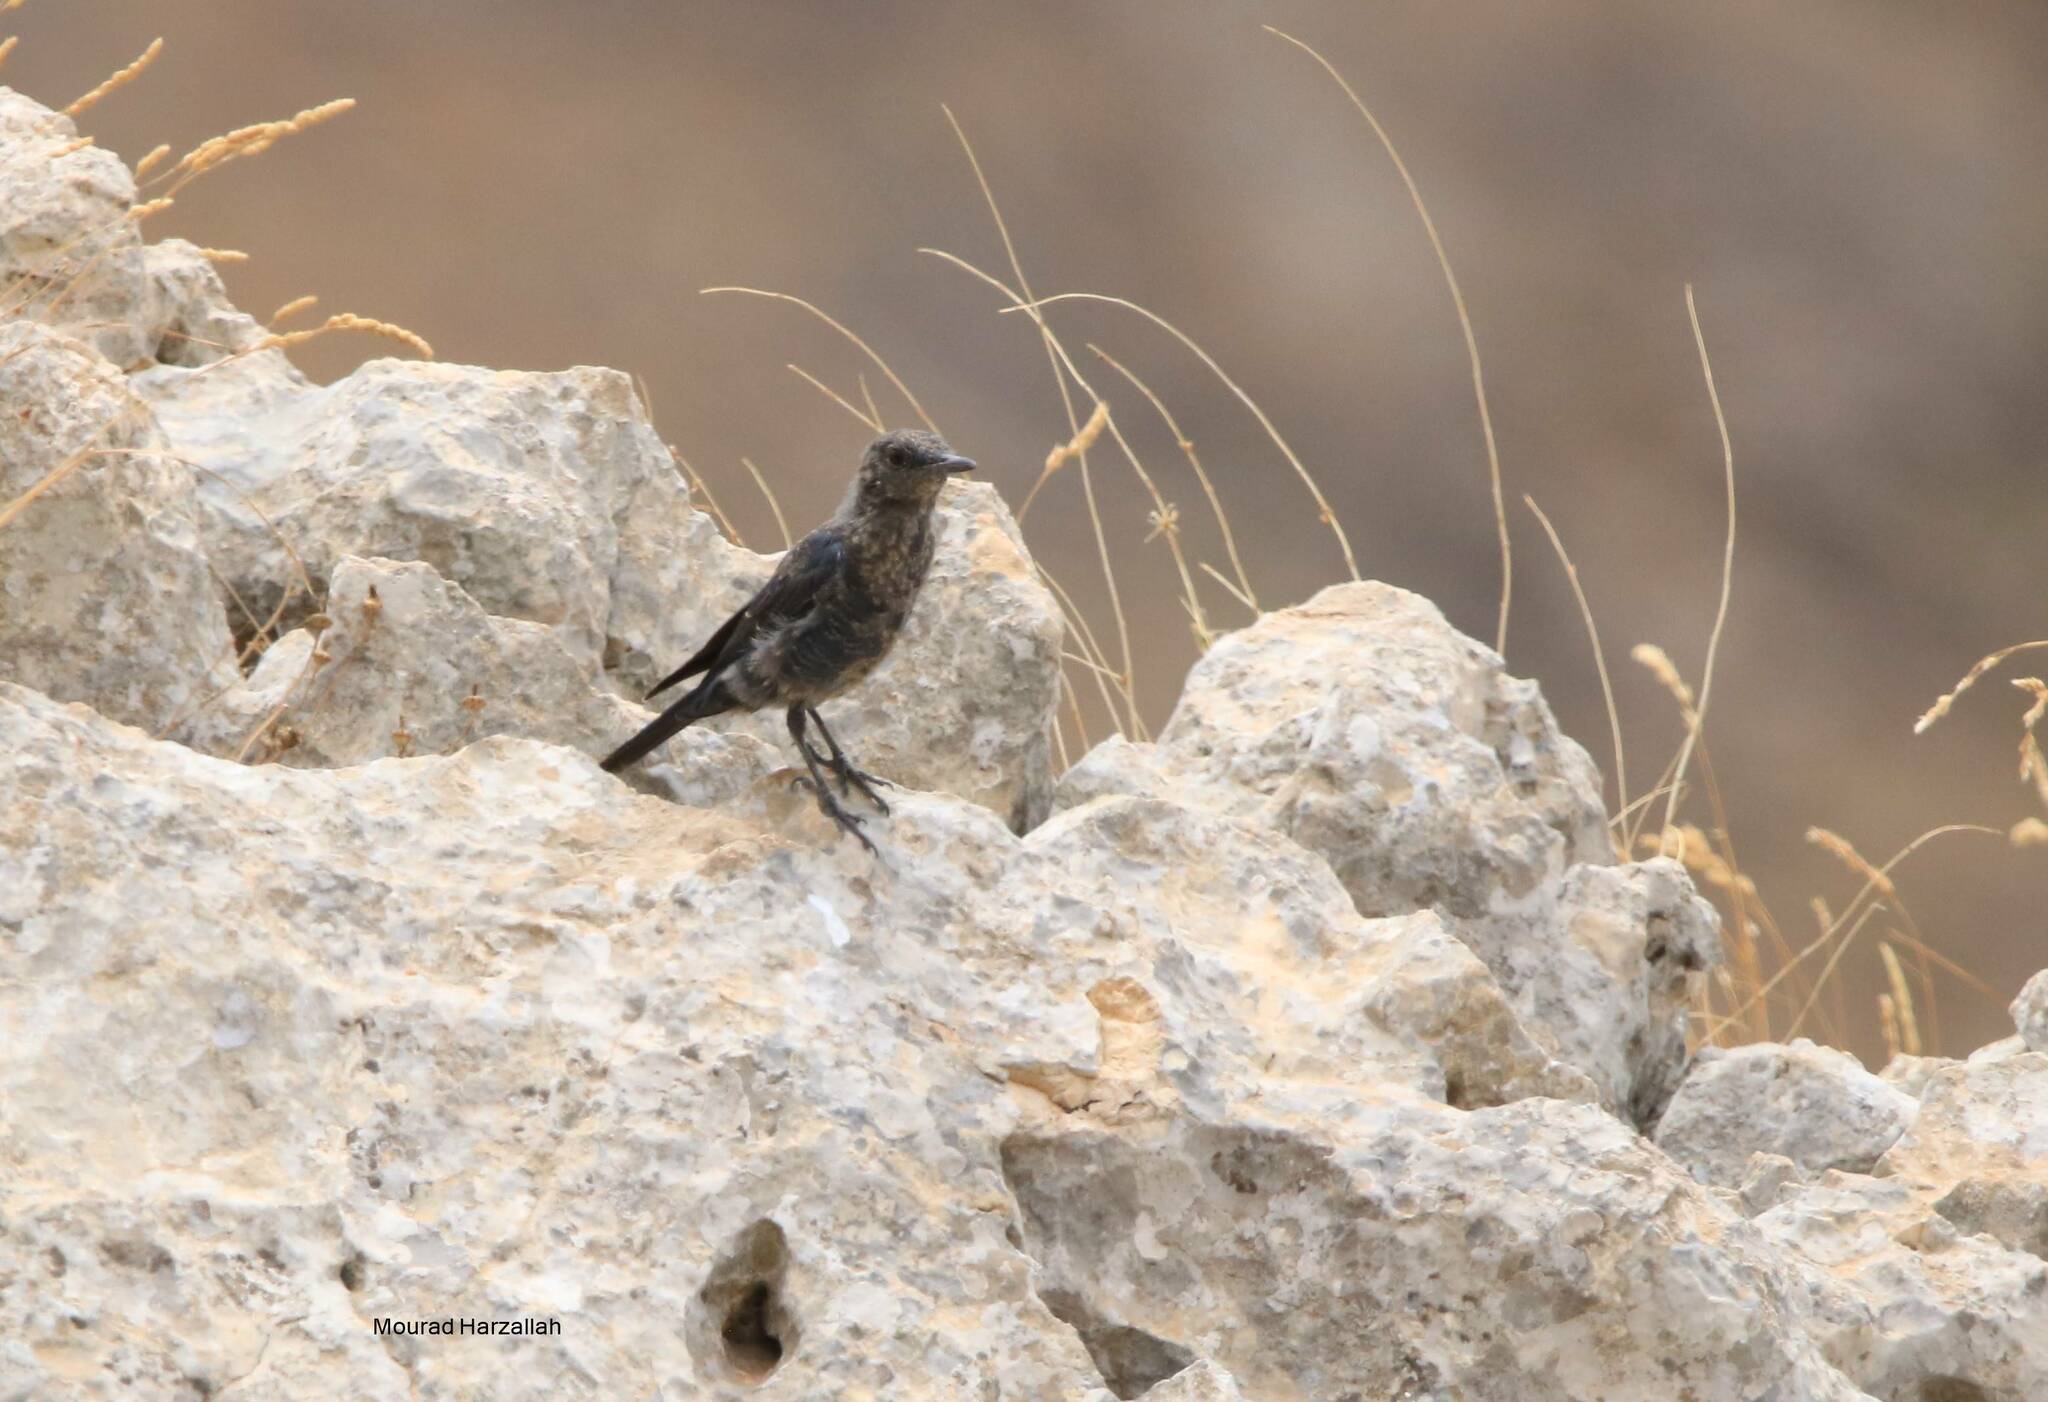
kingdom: Animalia
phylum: Chordata
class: Aves
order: Passeriformes
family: Muscicapidae
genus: Monticola
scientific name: Monticola solitarius
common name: Blue rock thrush
